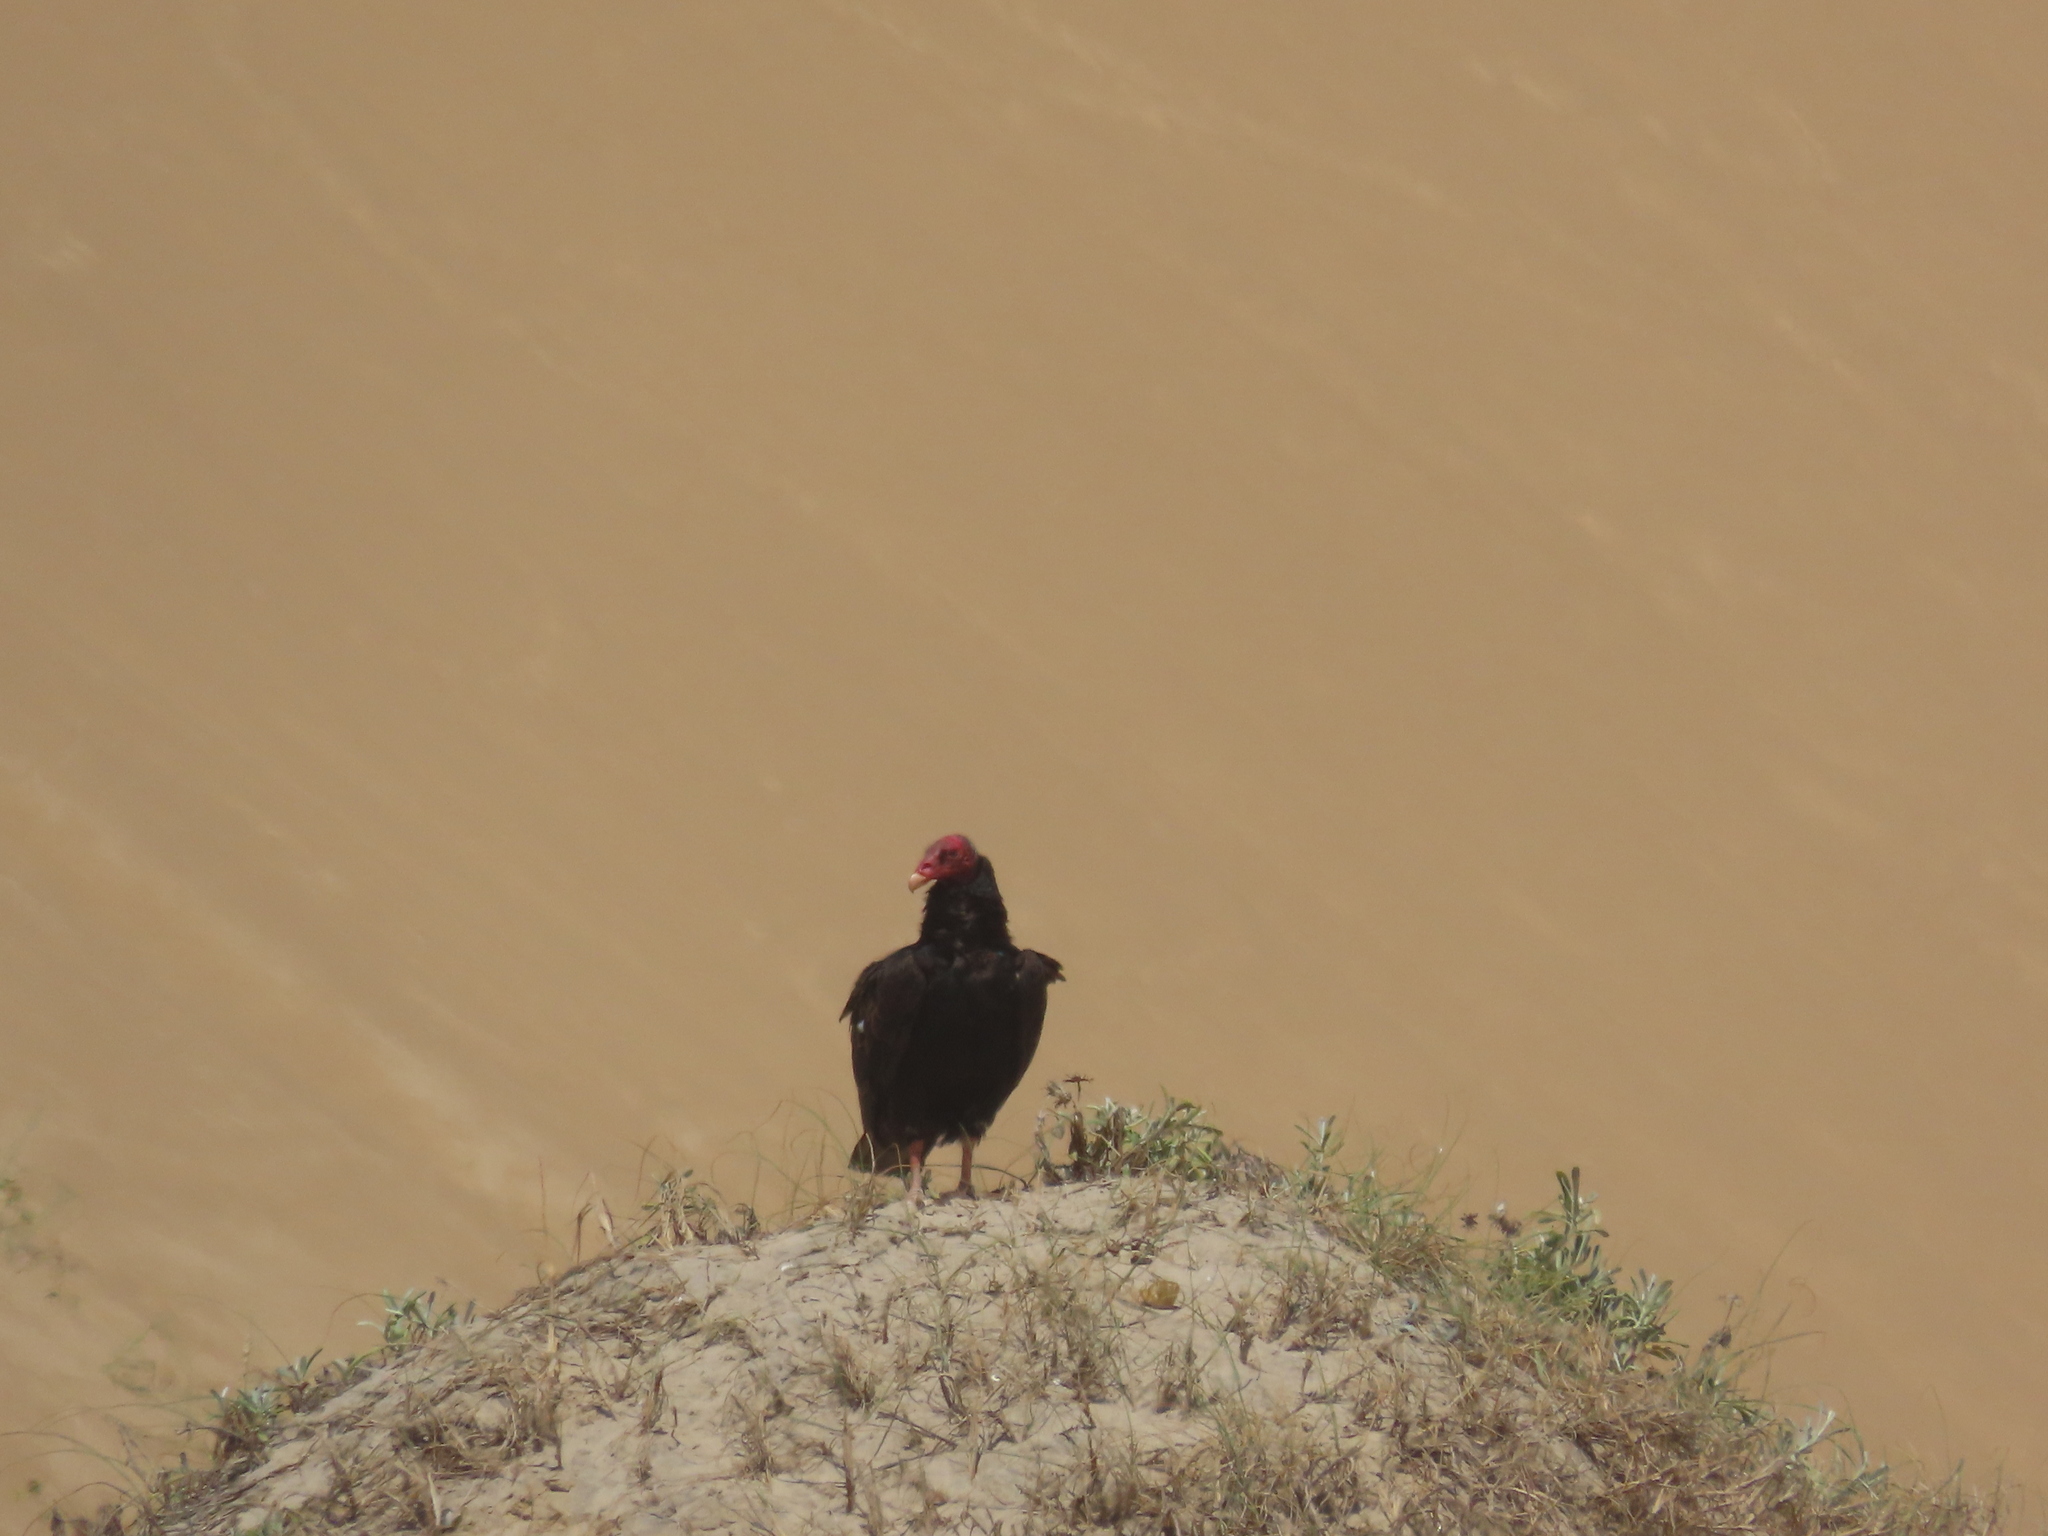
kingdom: Animalia
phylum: Chordata
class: Aves
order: Accipitriformes
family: Cathartidae
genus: Cathartes
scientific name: Cathartes aura
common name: Turkey vulture
